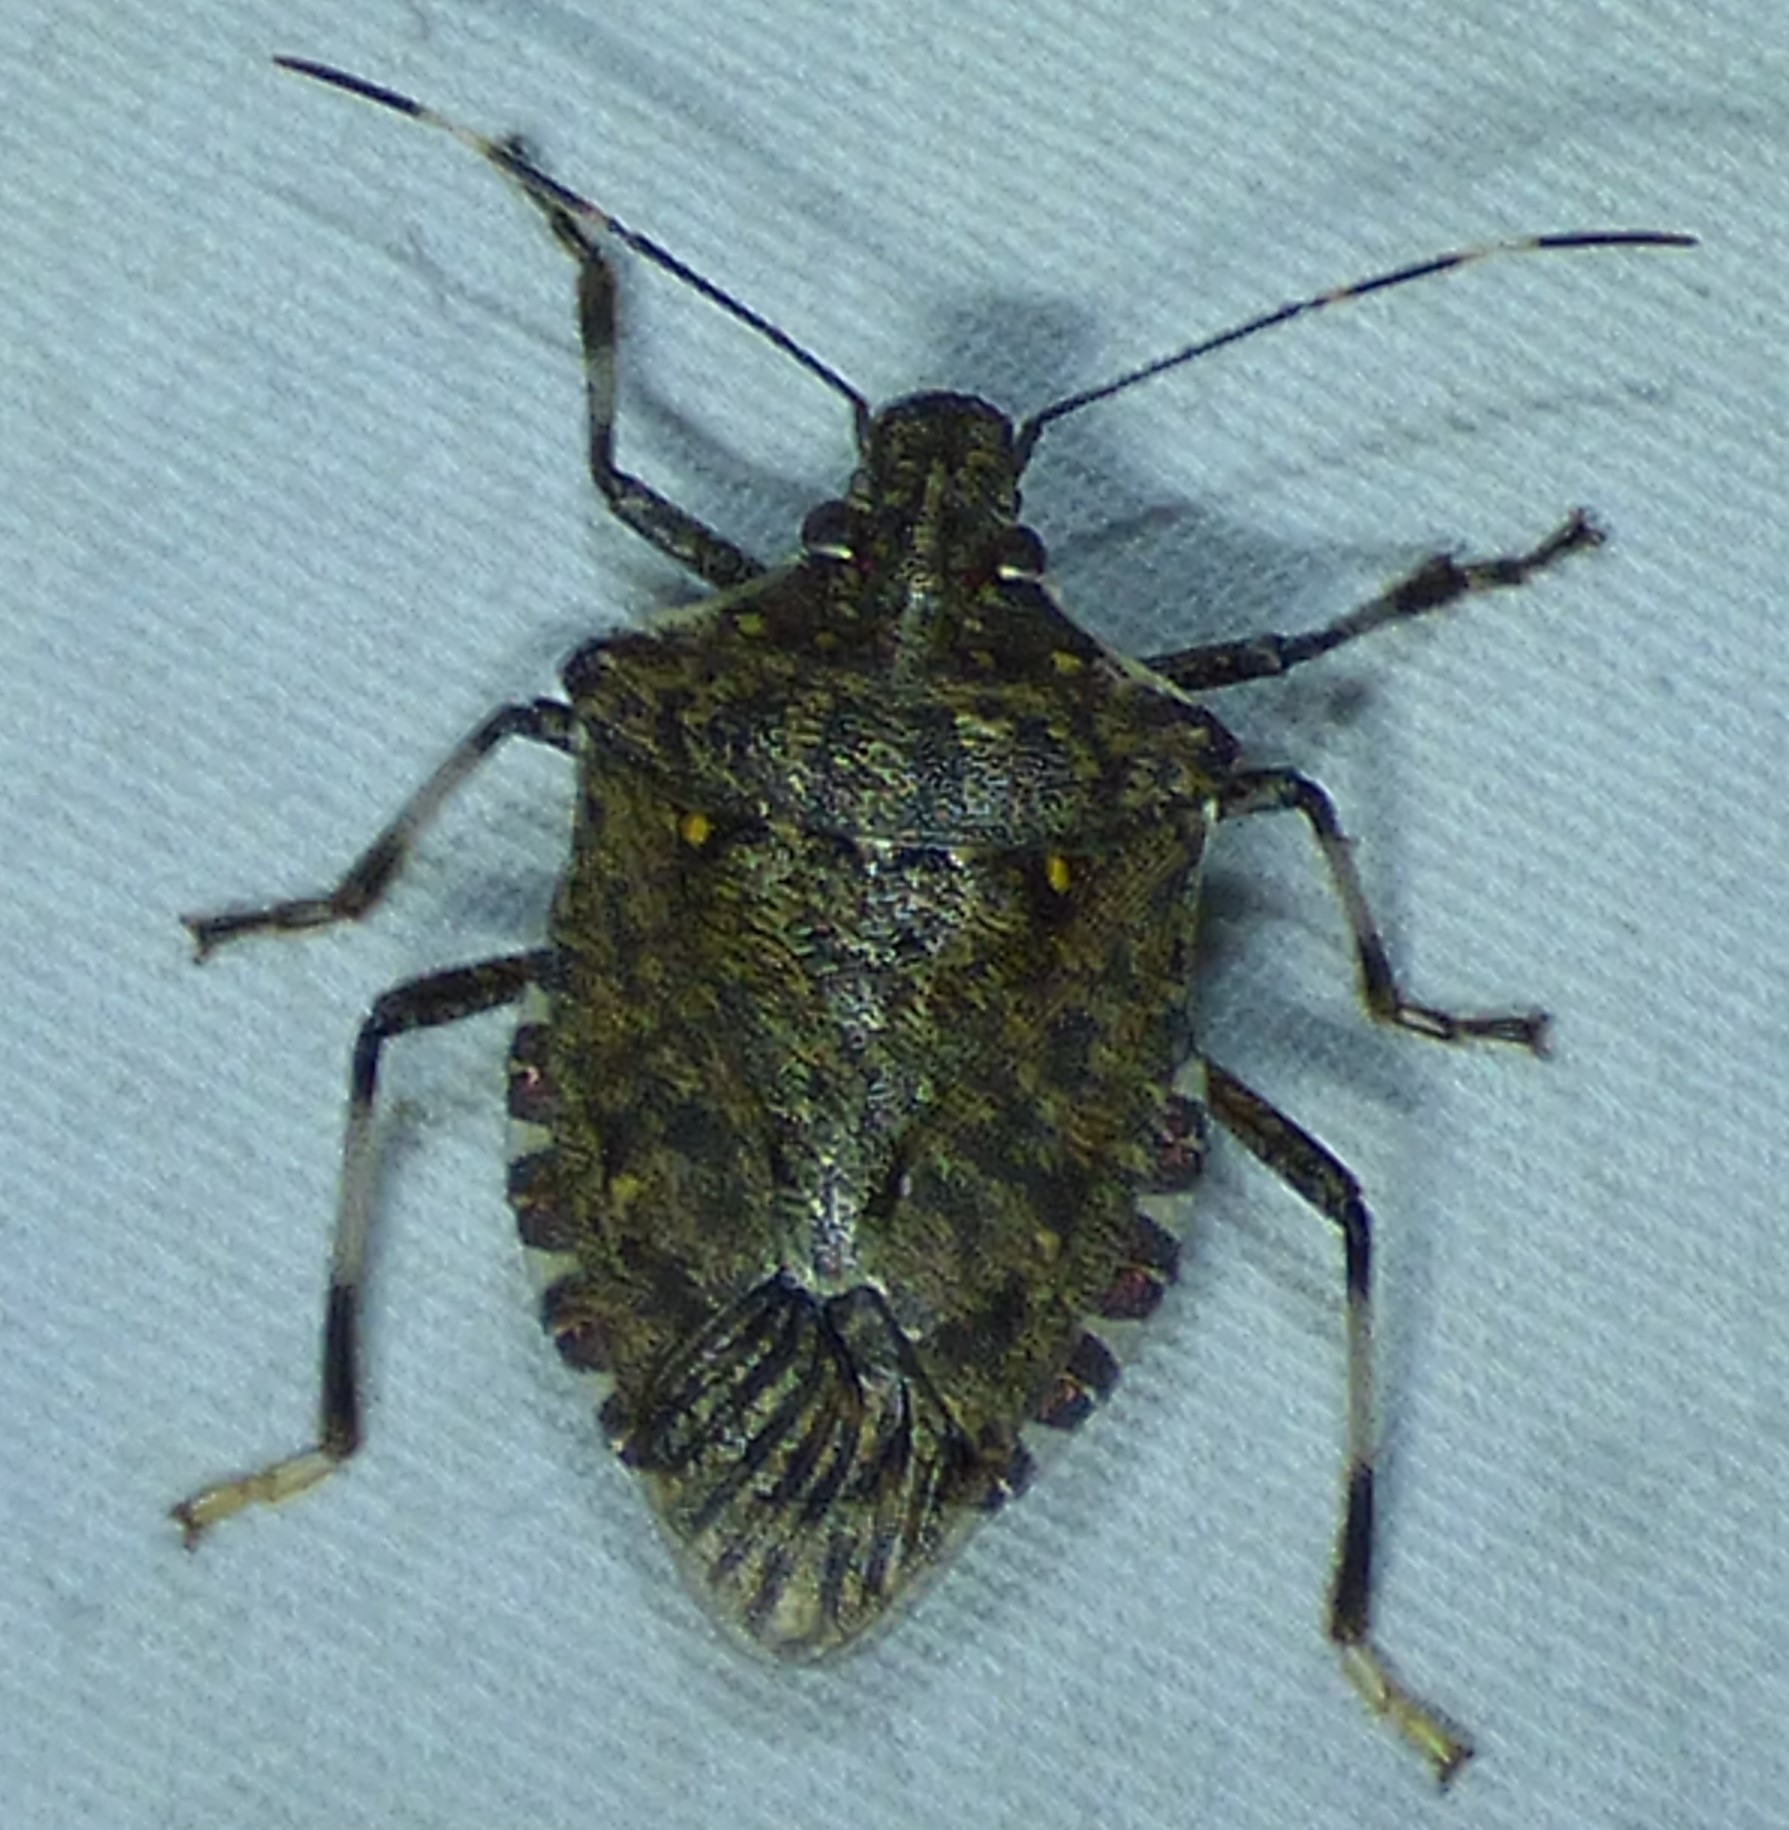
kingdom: Animalia
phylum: Arthropoda
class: Insecta
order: Hemiptera
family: Pentatomidae
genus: Halyomorpha
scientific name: Halyomorpha halys
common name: Brown marmorated stink bug
